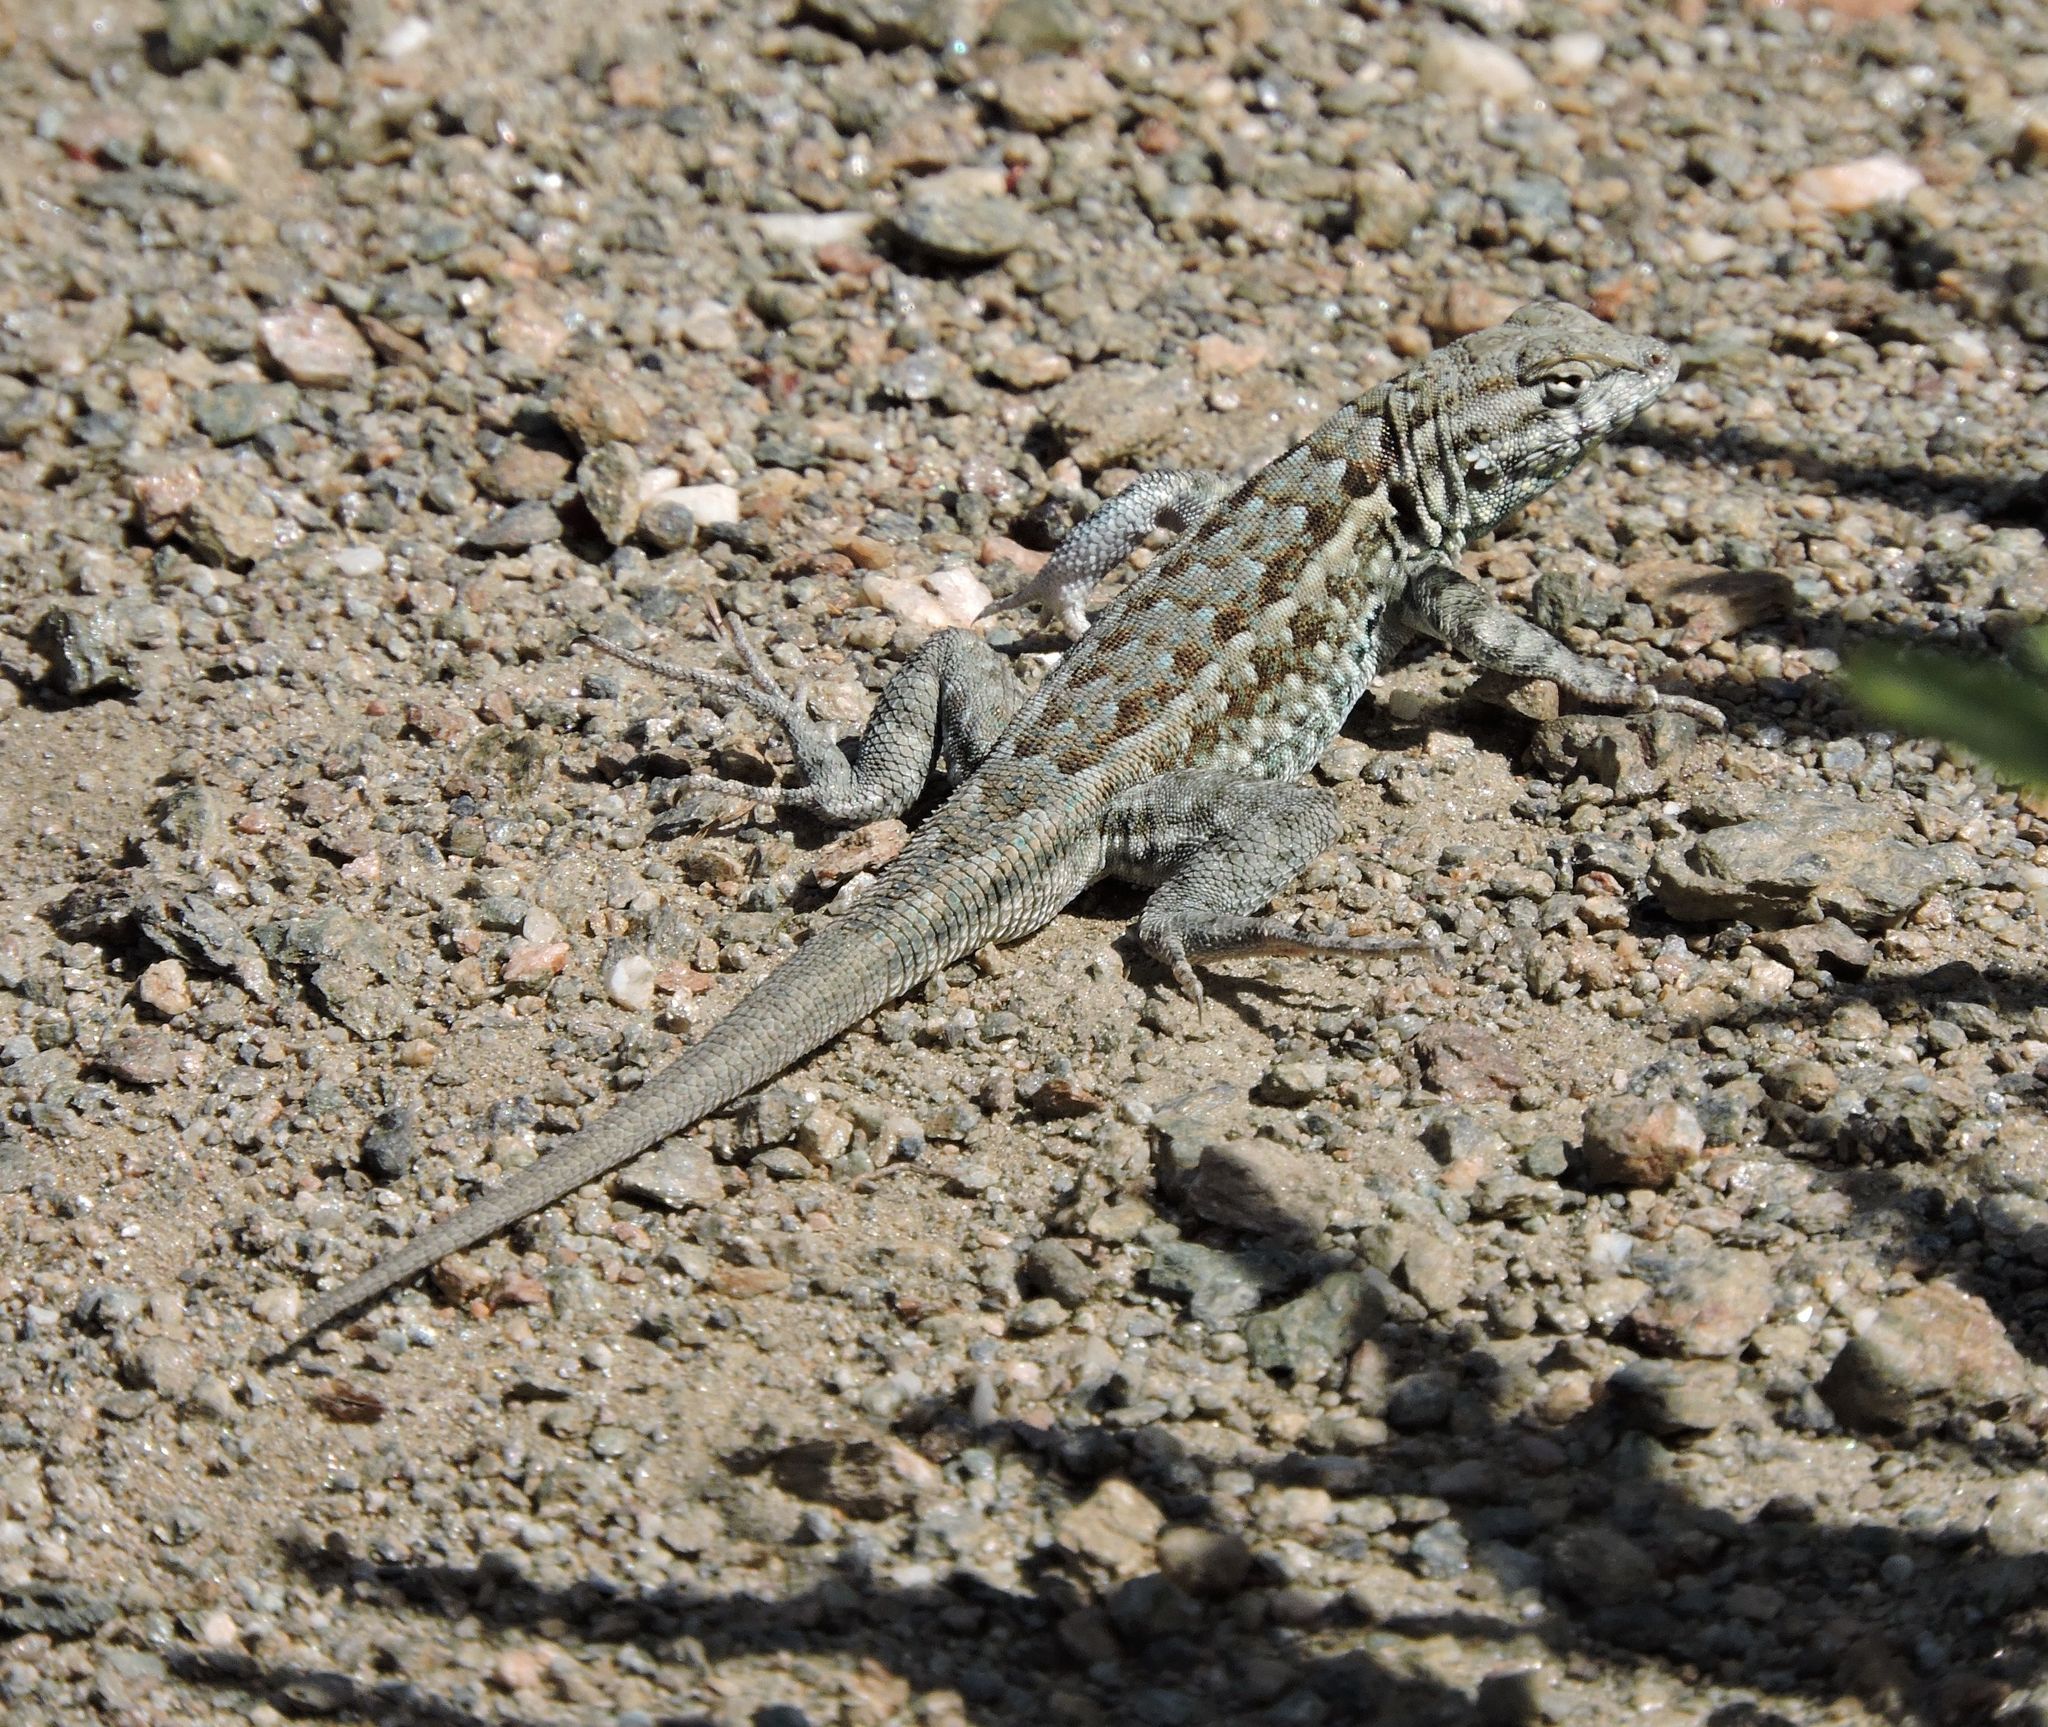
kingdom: Animalia
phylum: Chordata
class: Squamata
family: Phrynosomatidae
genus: Uta
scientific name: Uta stansburiana
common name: Side-blotched lizard
